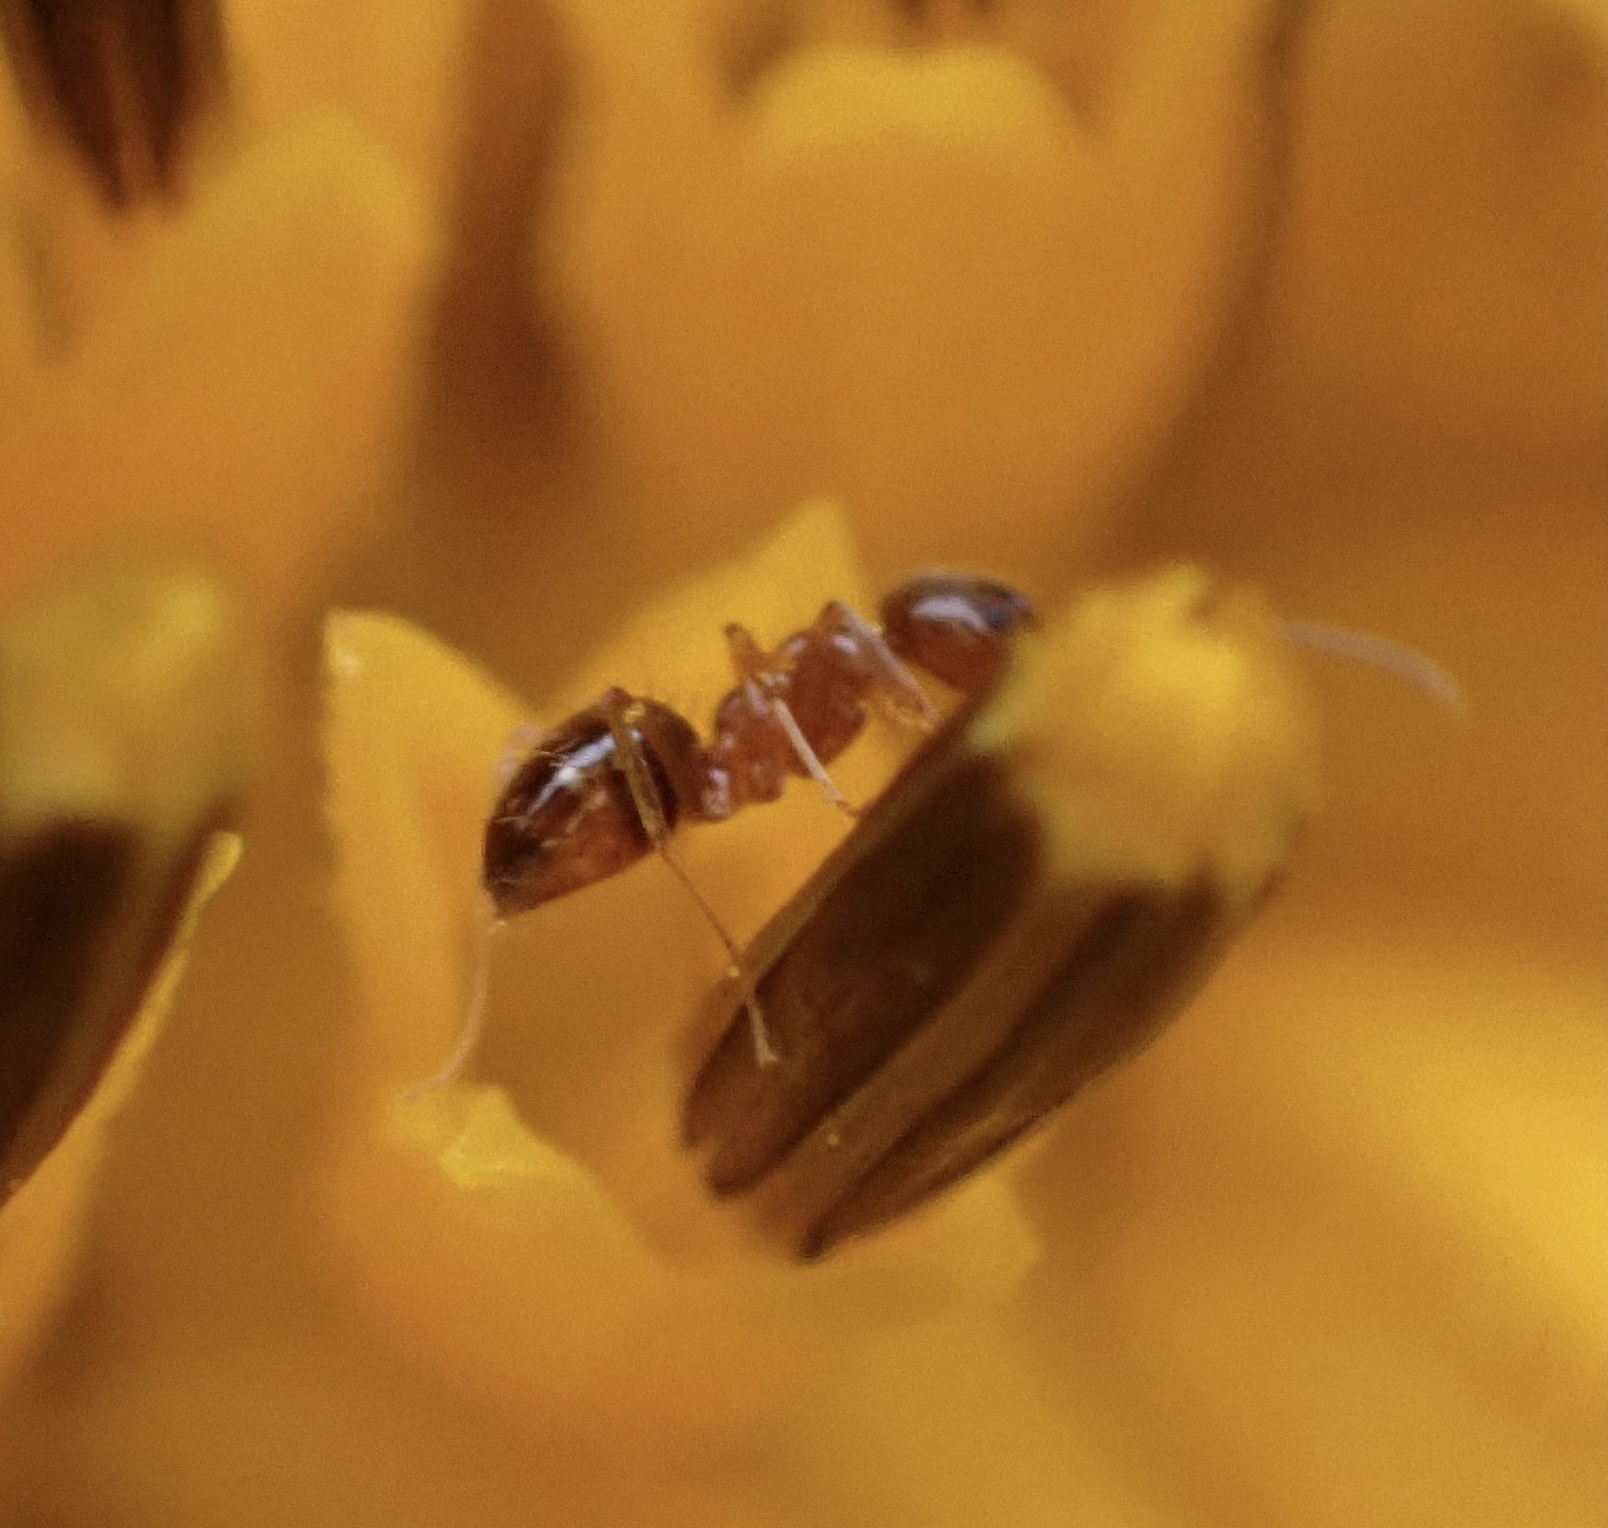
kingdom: Animalia
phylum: Arthropoda
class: Insecta
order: Hymenoptera
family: Formicidae
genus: Paratrechina
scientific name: Paratrechina flavipes
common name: Eastern asian formicine ant
